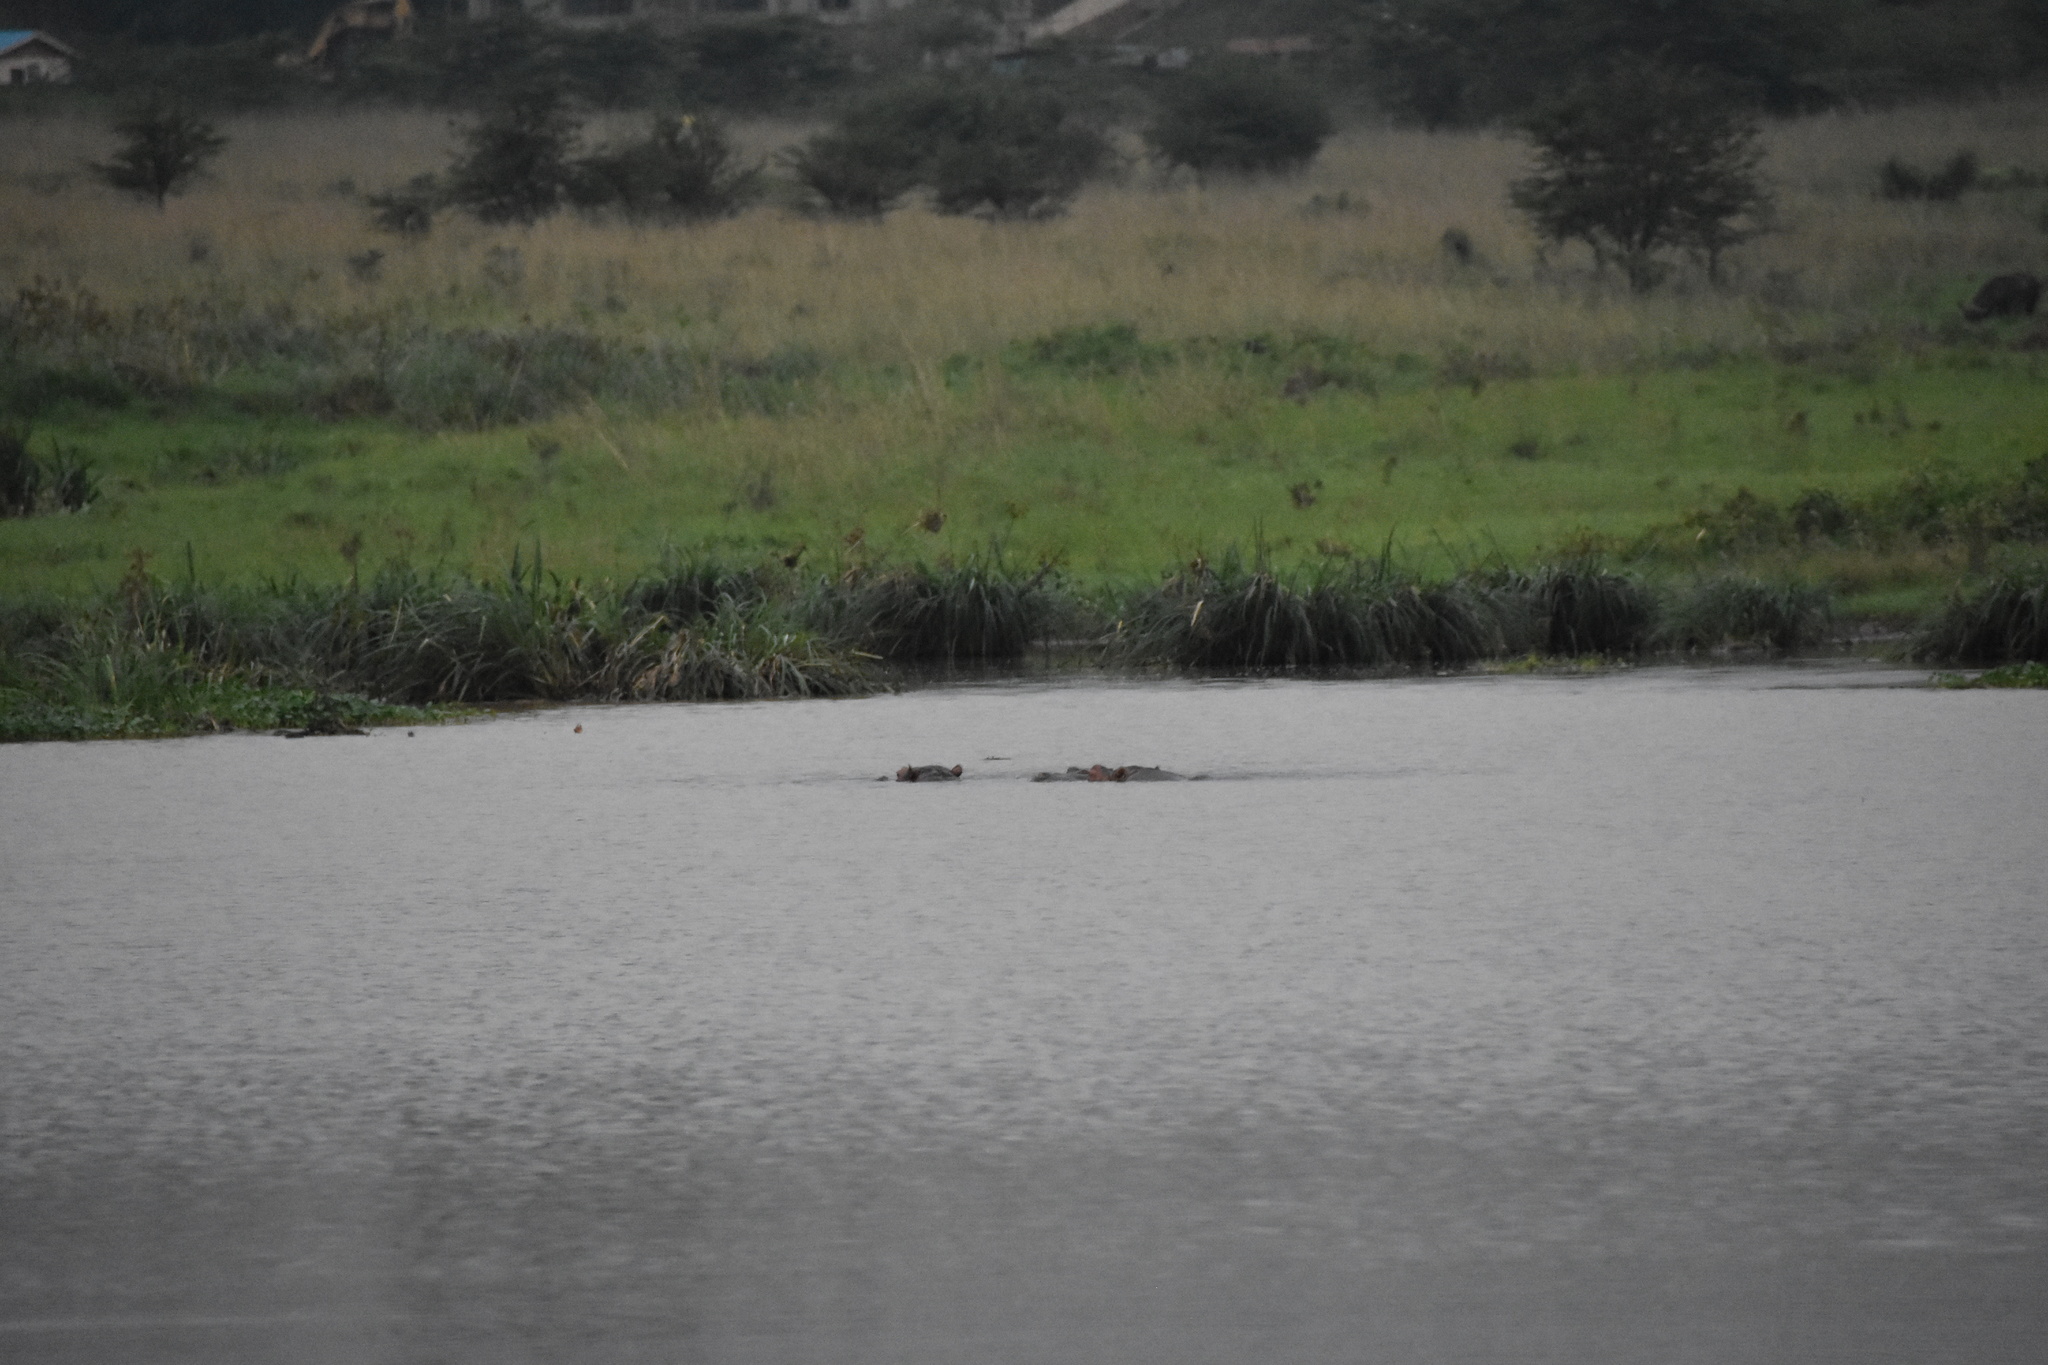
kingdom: Animalia
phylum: Chordata
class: Mammalia
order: Artiodactyla
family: Hippopotamidae
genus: Hippopotamus
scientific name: Hippopotamus amphibius
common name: Common hippopotamus
